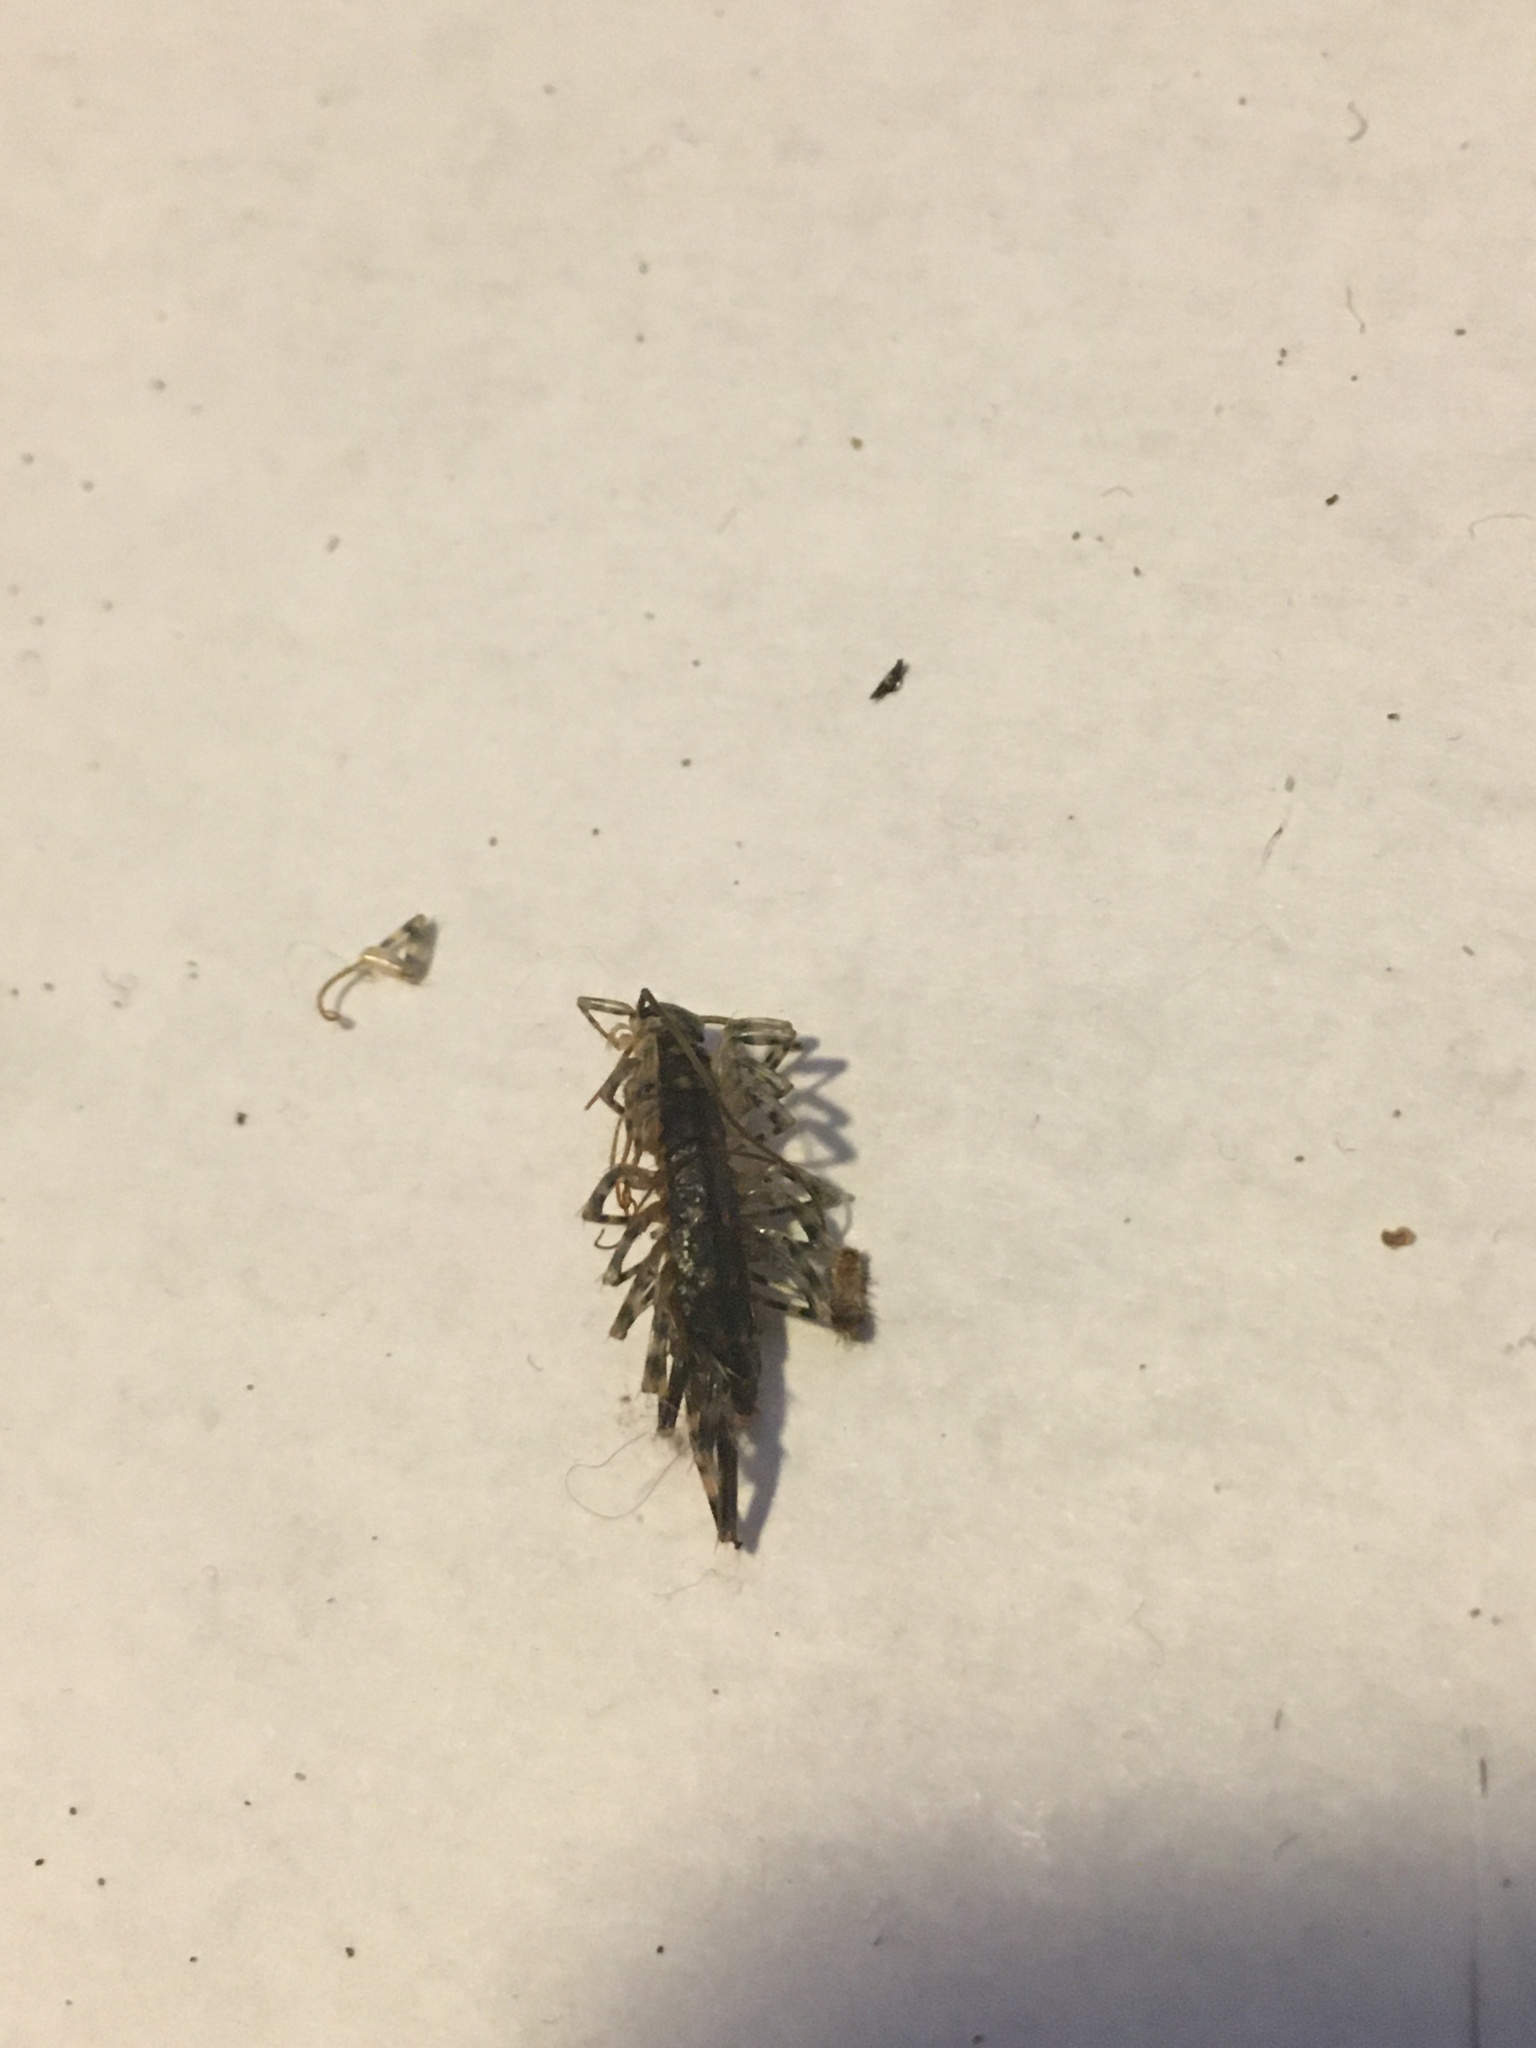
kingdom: Animalia
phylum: Arthropoda
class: Chilopoda
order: Scutigeromorpha
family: Scutigeridae
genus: Scutigera
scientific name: Scutigera coleoptrata
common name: House centipede
